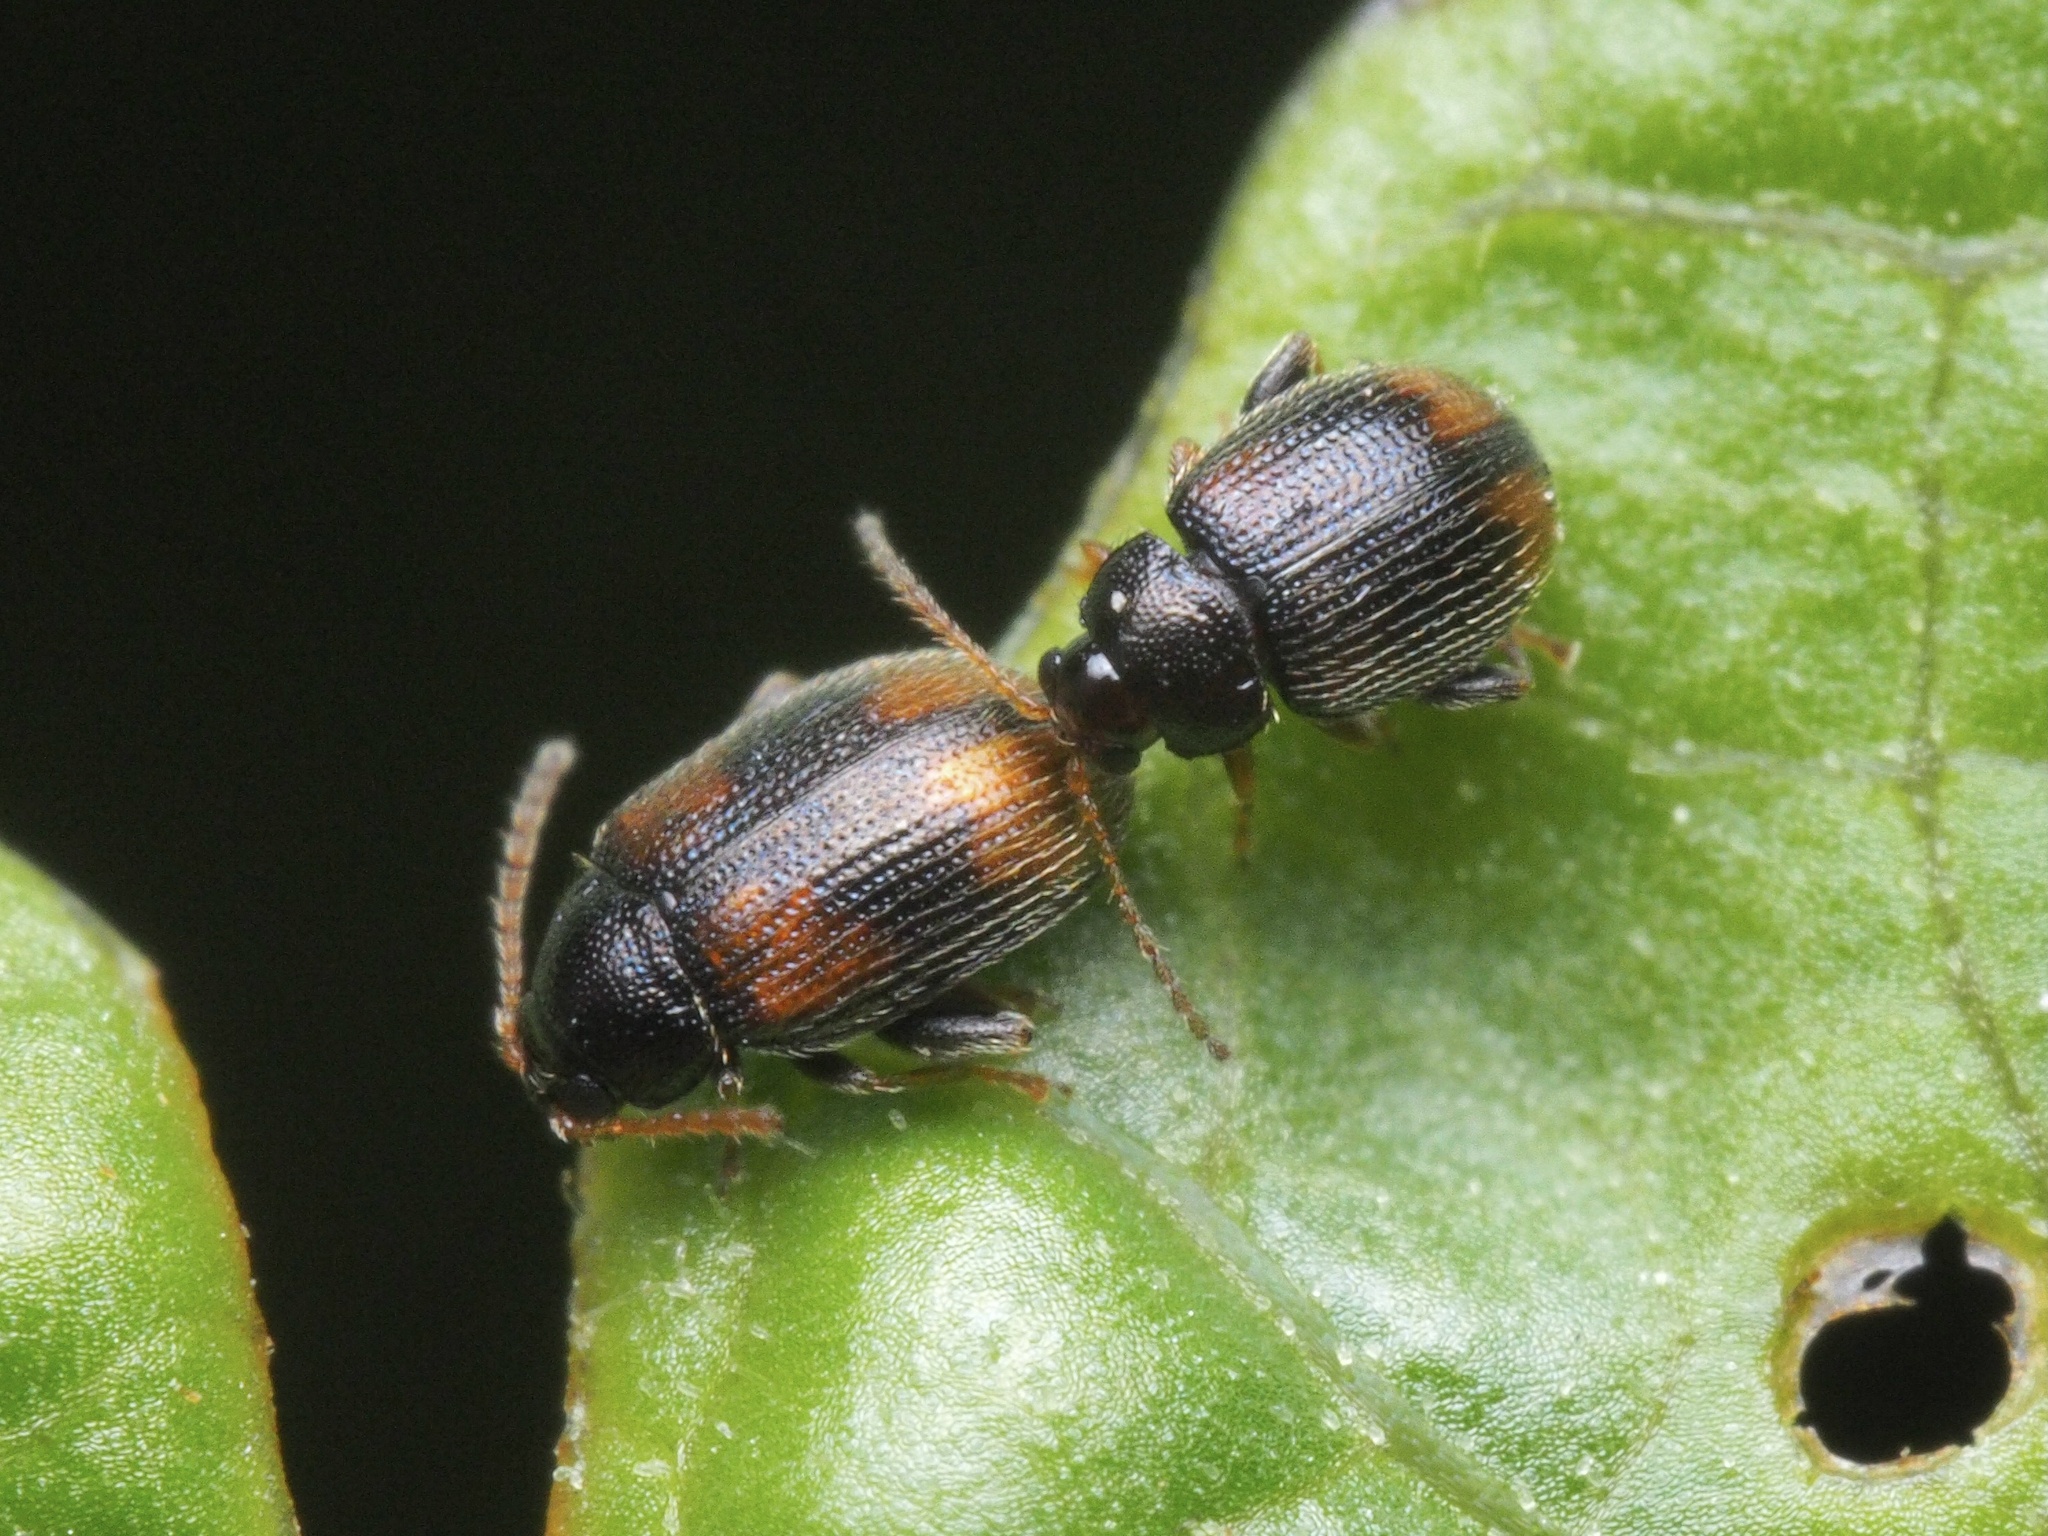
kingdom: Animalia
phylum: Arthropoda
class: Insecta
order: Coleoptera
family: Chrysomelidae
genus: Epitrix
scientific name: Epitrix atropae
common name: Belladonna flea beetle
